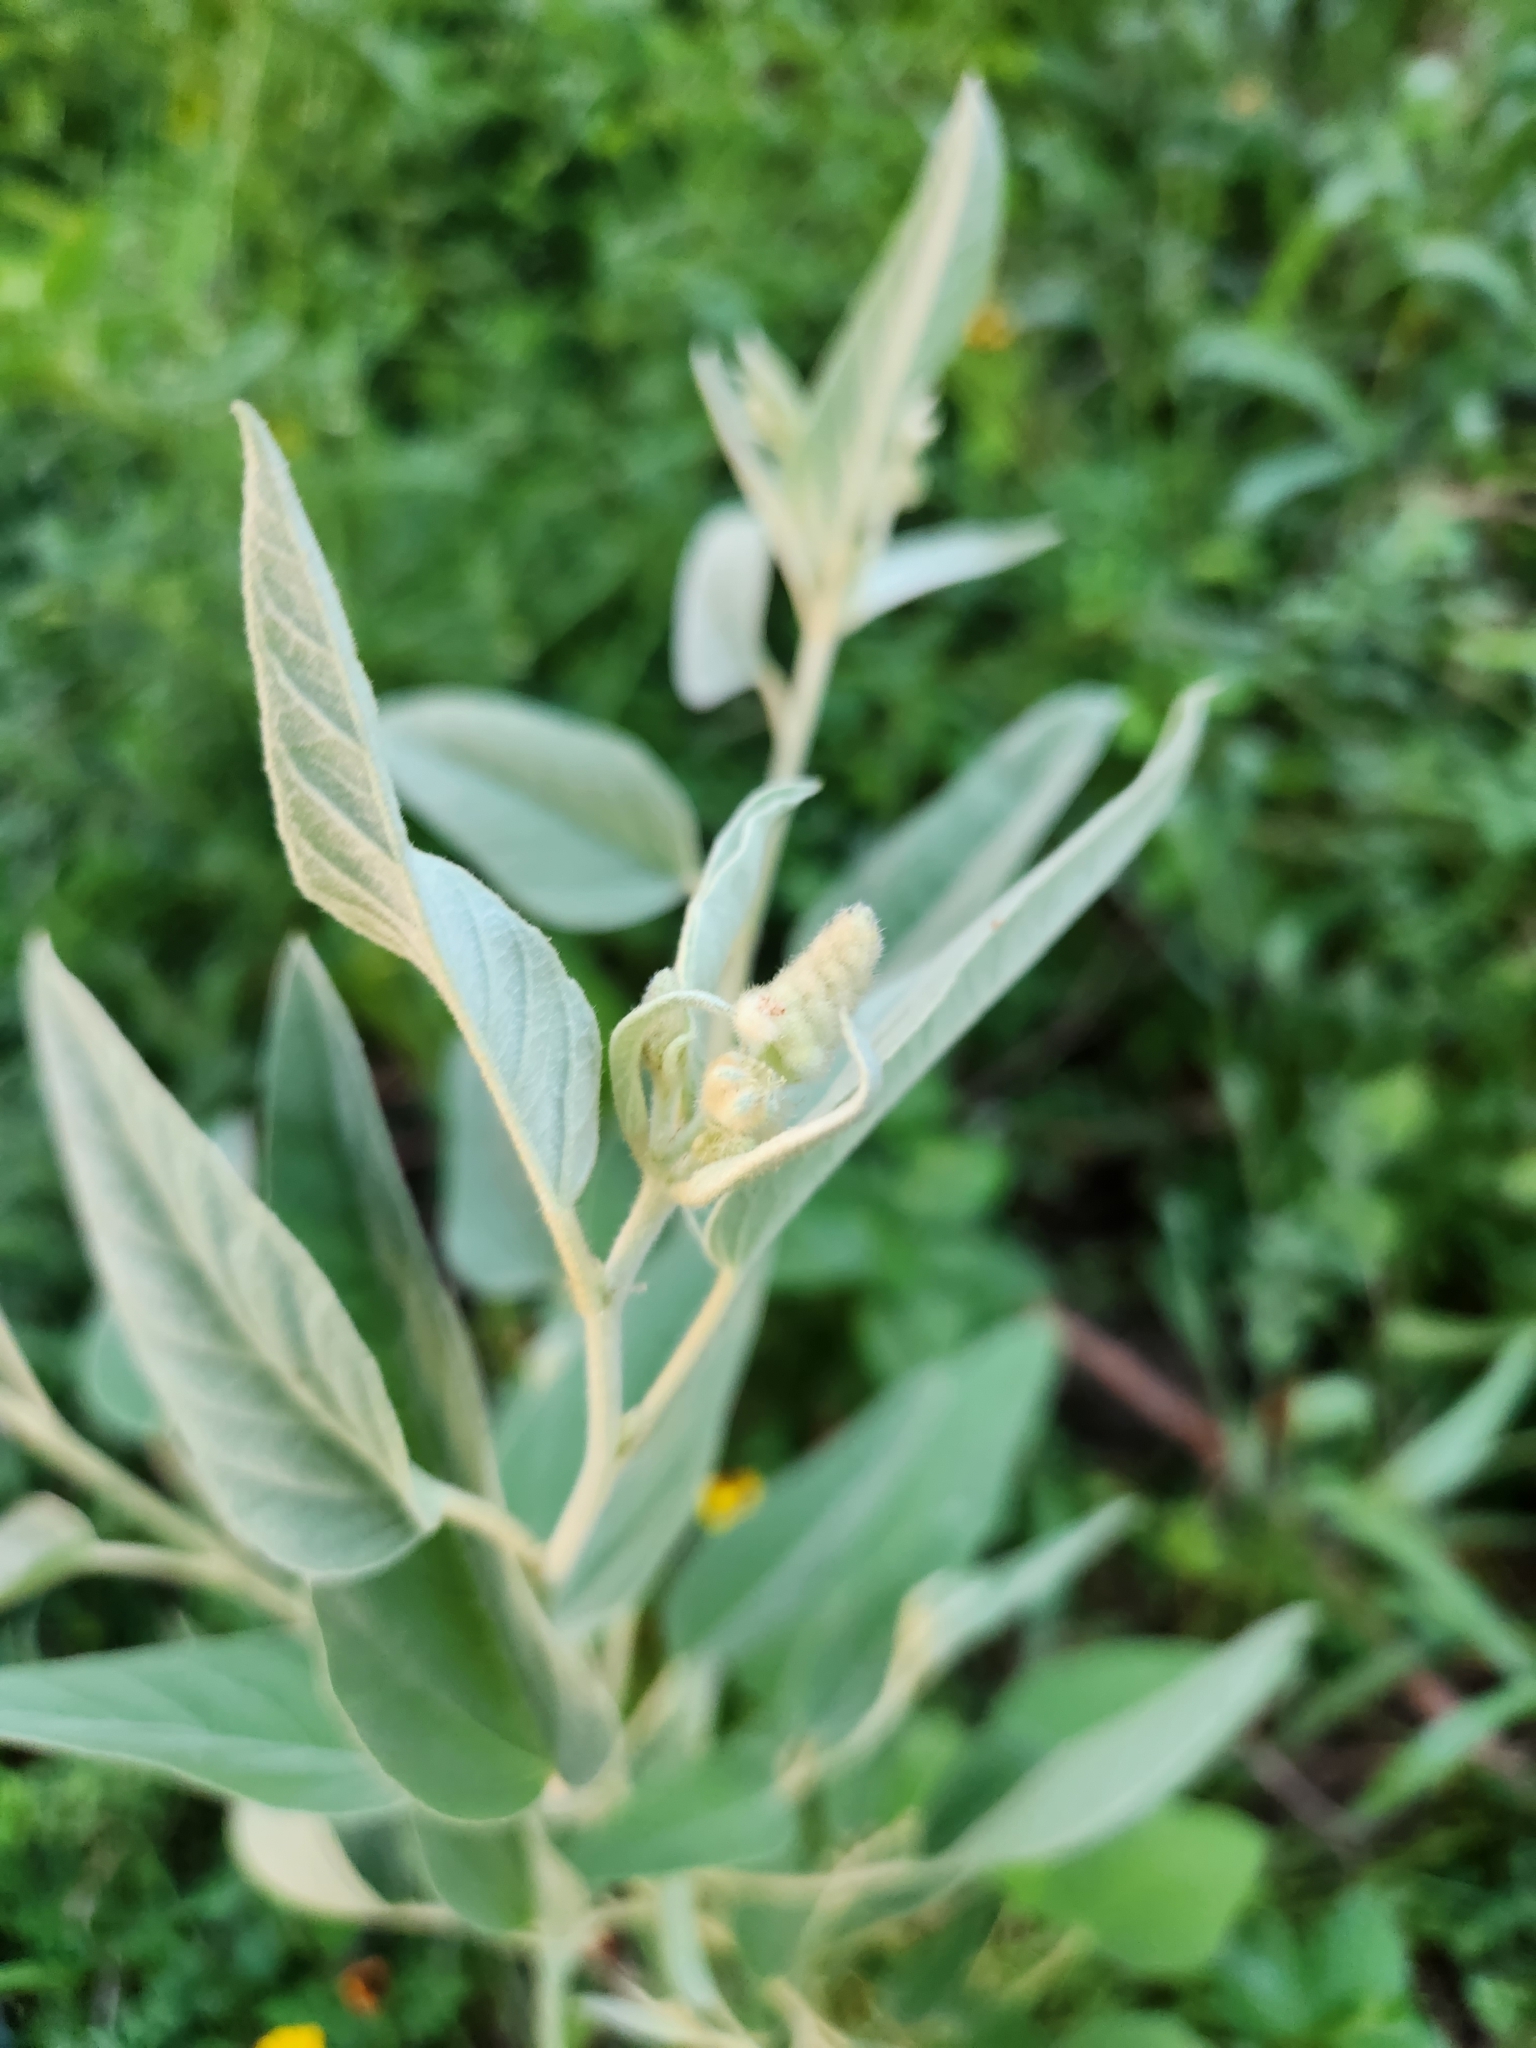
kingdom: Plantae
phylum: Tracheophyta
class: Magnoliopsida
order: Malpighiales
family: Euphorbiaceae
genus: Croton
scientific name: Croton lindheimeri
